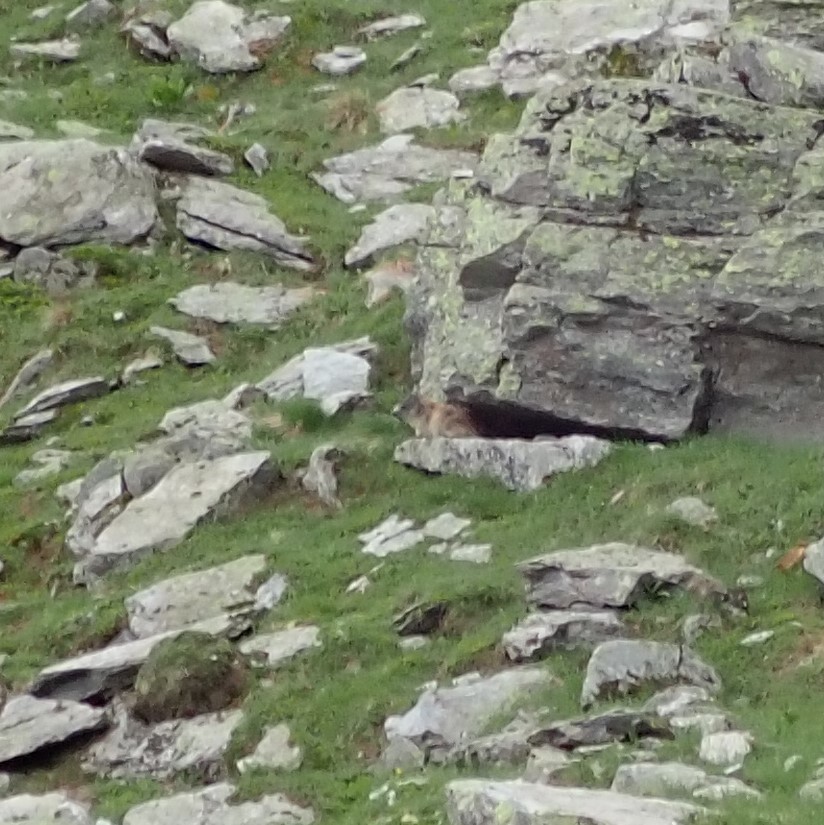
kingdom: Animalia
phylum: Chordata
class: Mammalia
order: Rodentia
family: Sciuridae
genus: Marmota
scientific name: Marmota marmota
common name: Alpine marmot
